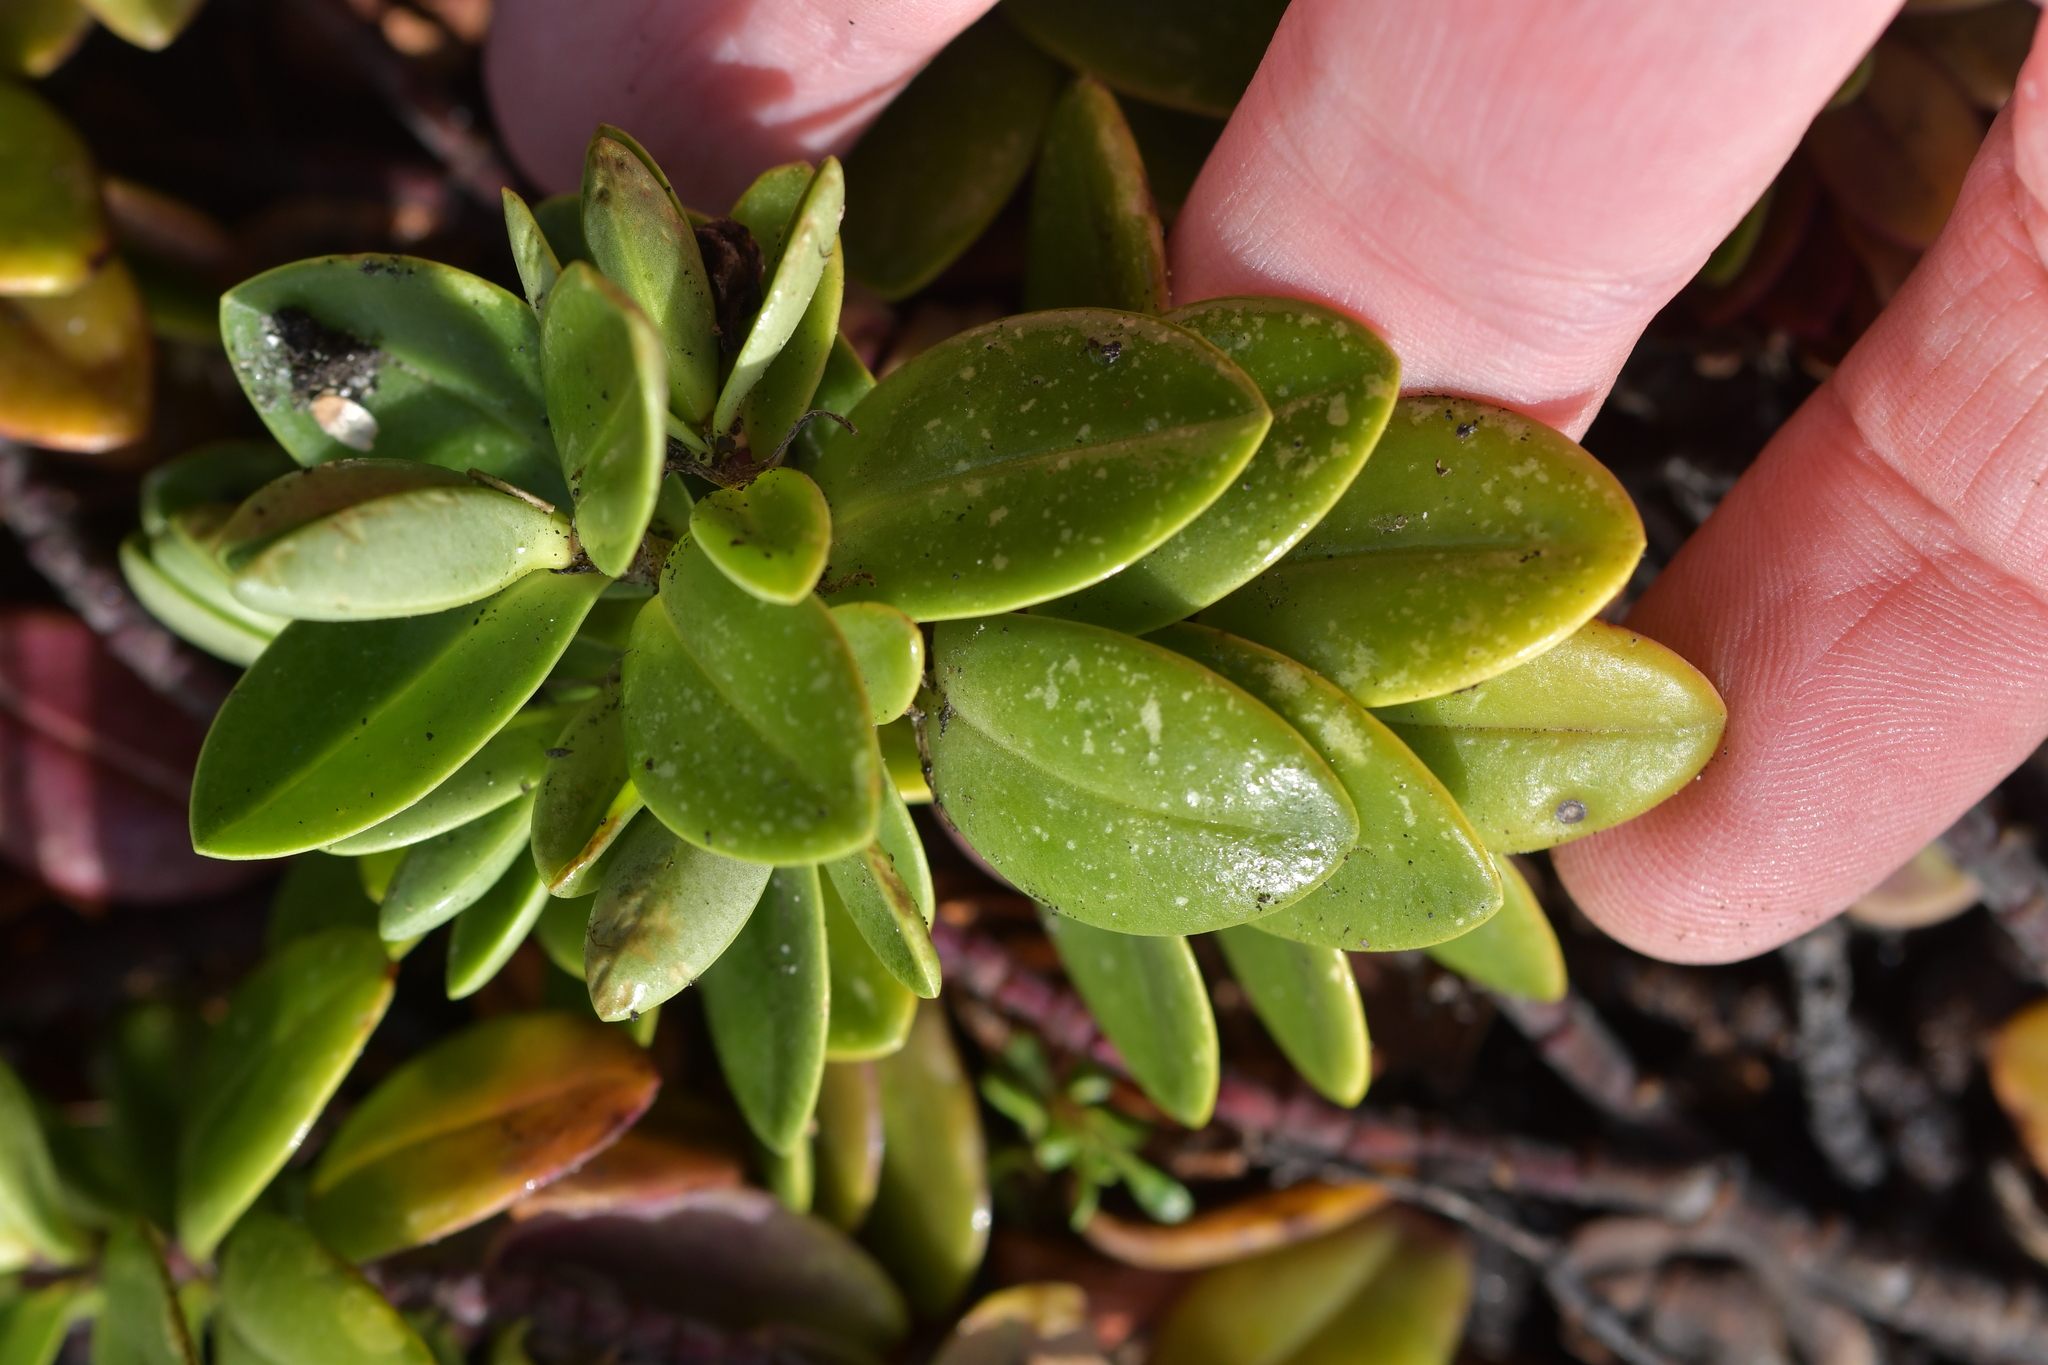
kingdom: Plantae
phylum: Tracheophyta
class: Magnoliopsida
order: Lamiales
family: Plantaginaceae
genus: Veronica
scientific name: Veronica chathamica
